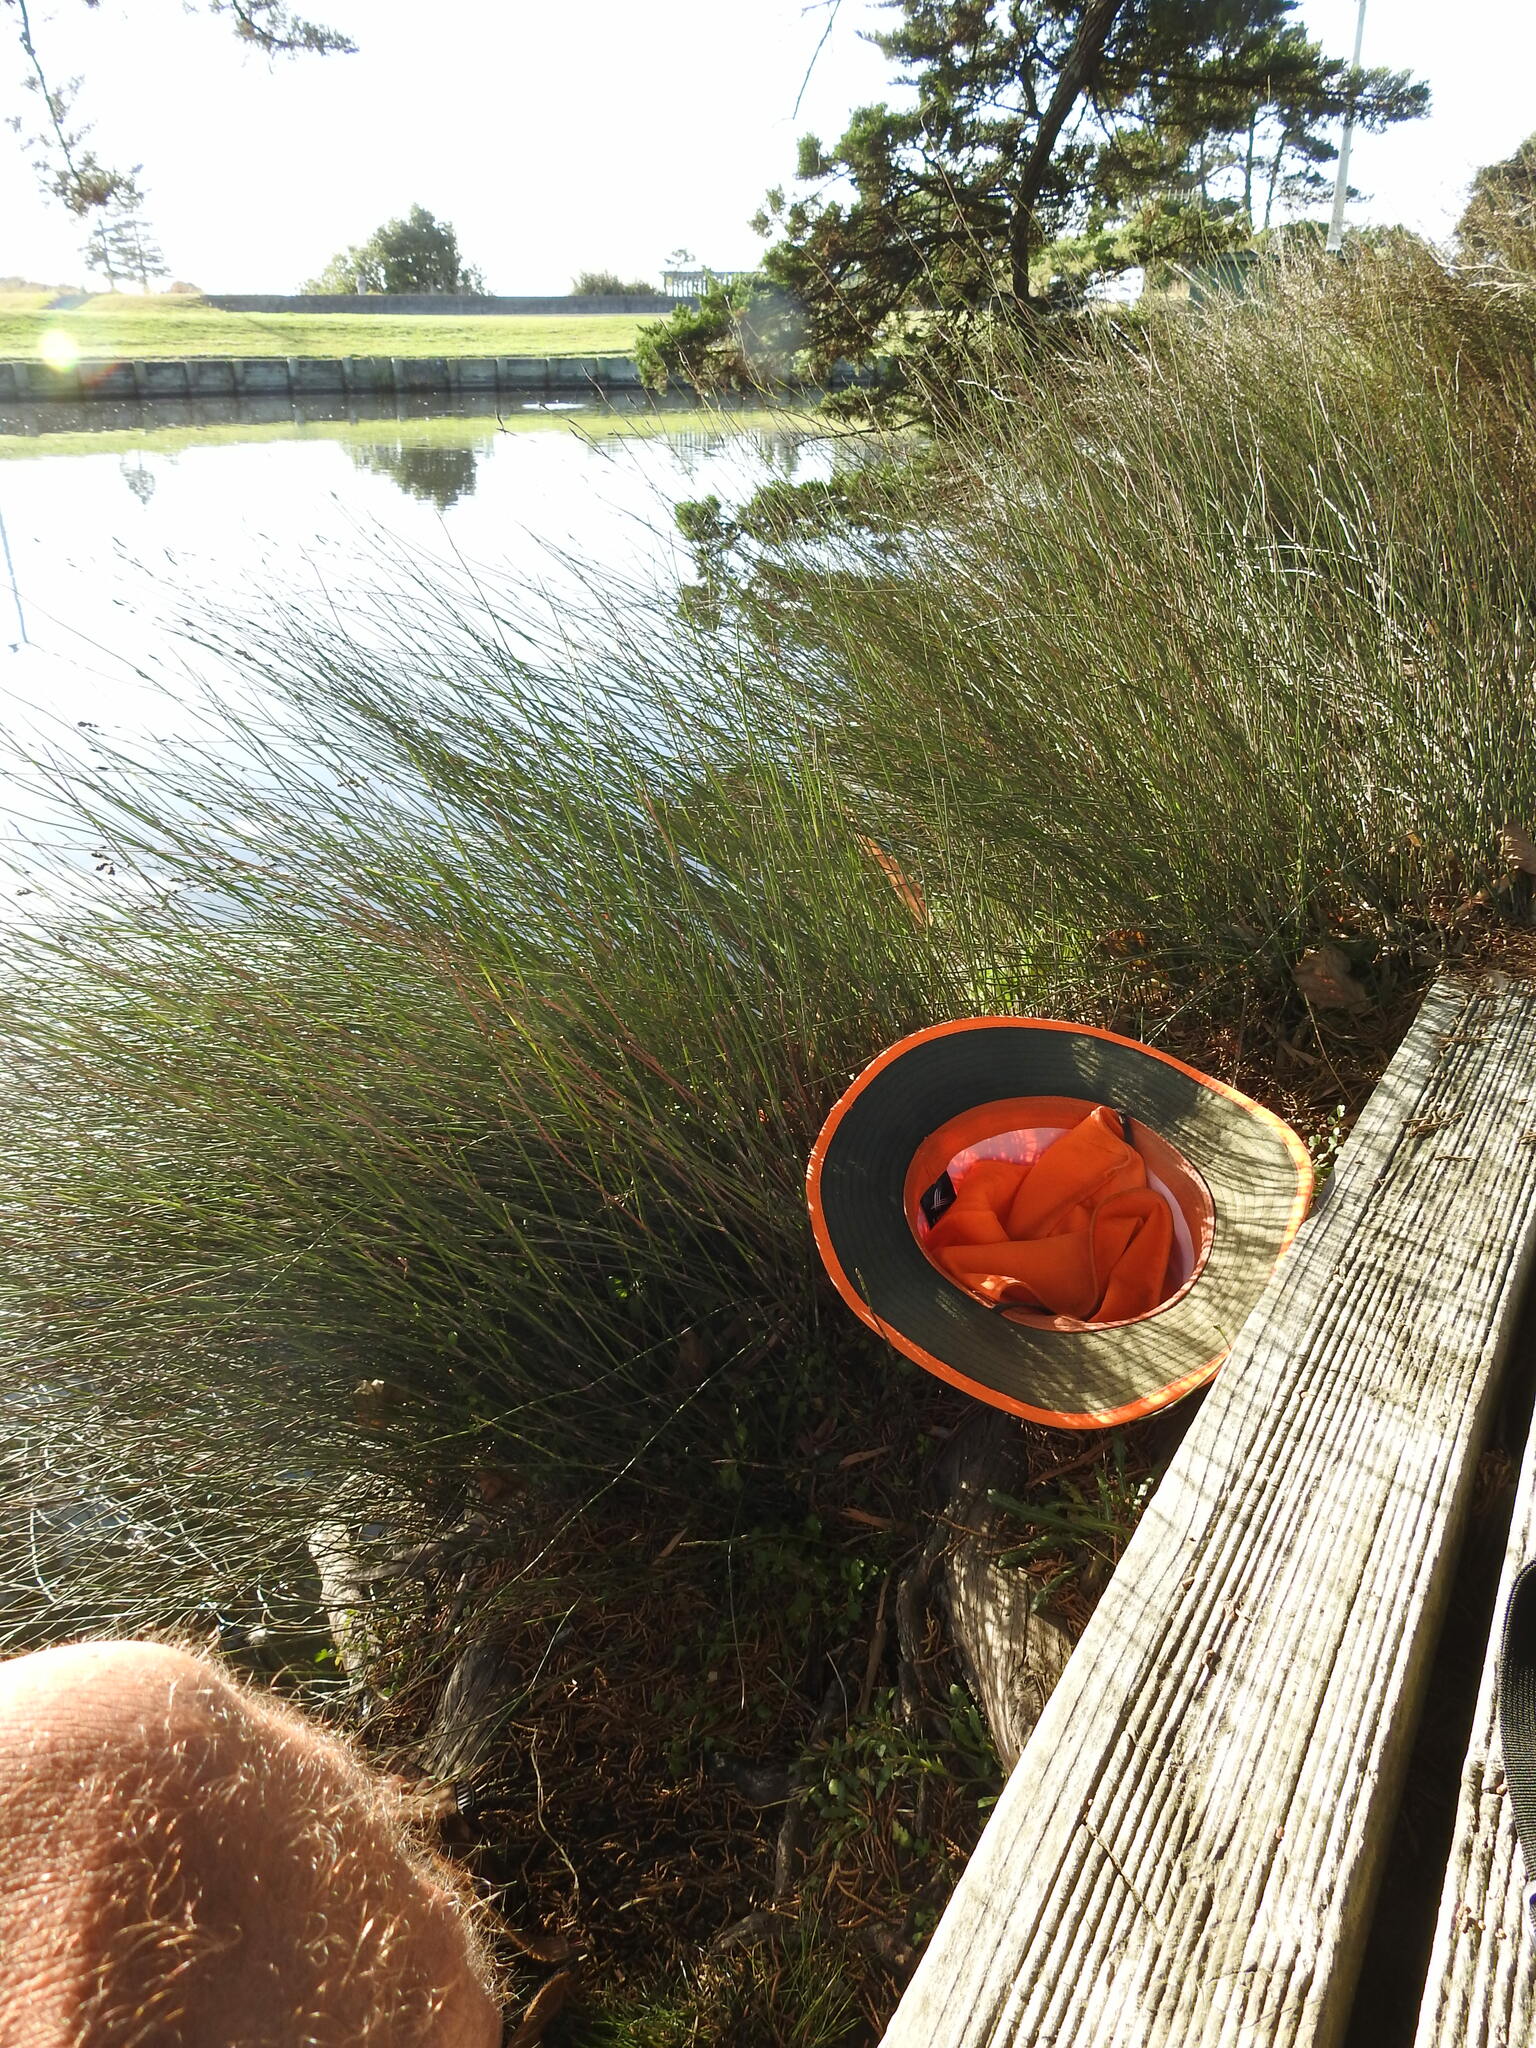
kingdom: Plantae
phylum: Tracheophyta
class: Liliopsida
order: Poales
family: Restionaceae
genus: Apodasmia
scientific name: Apodasmia similis
